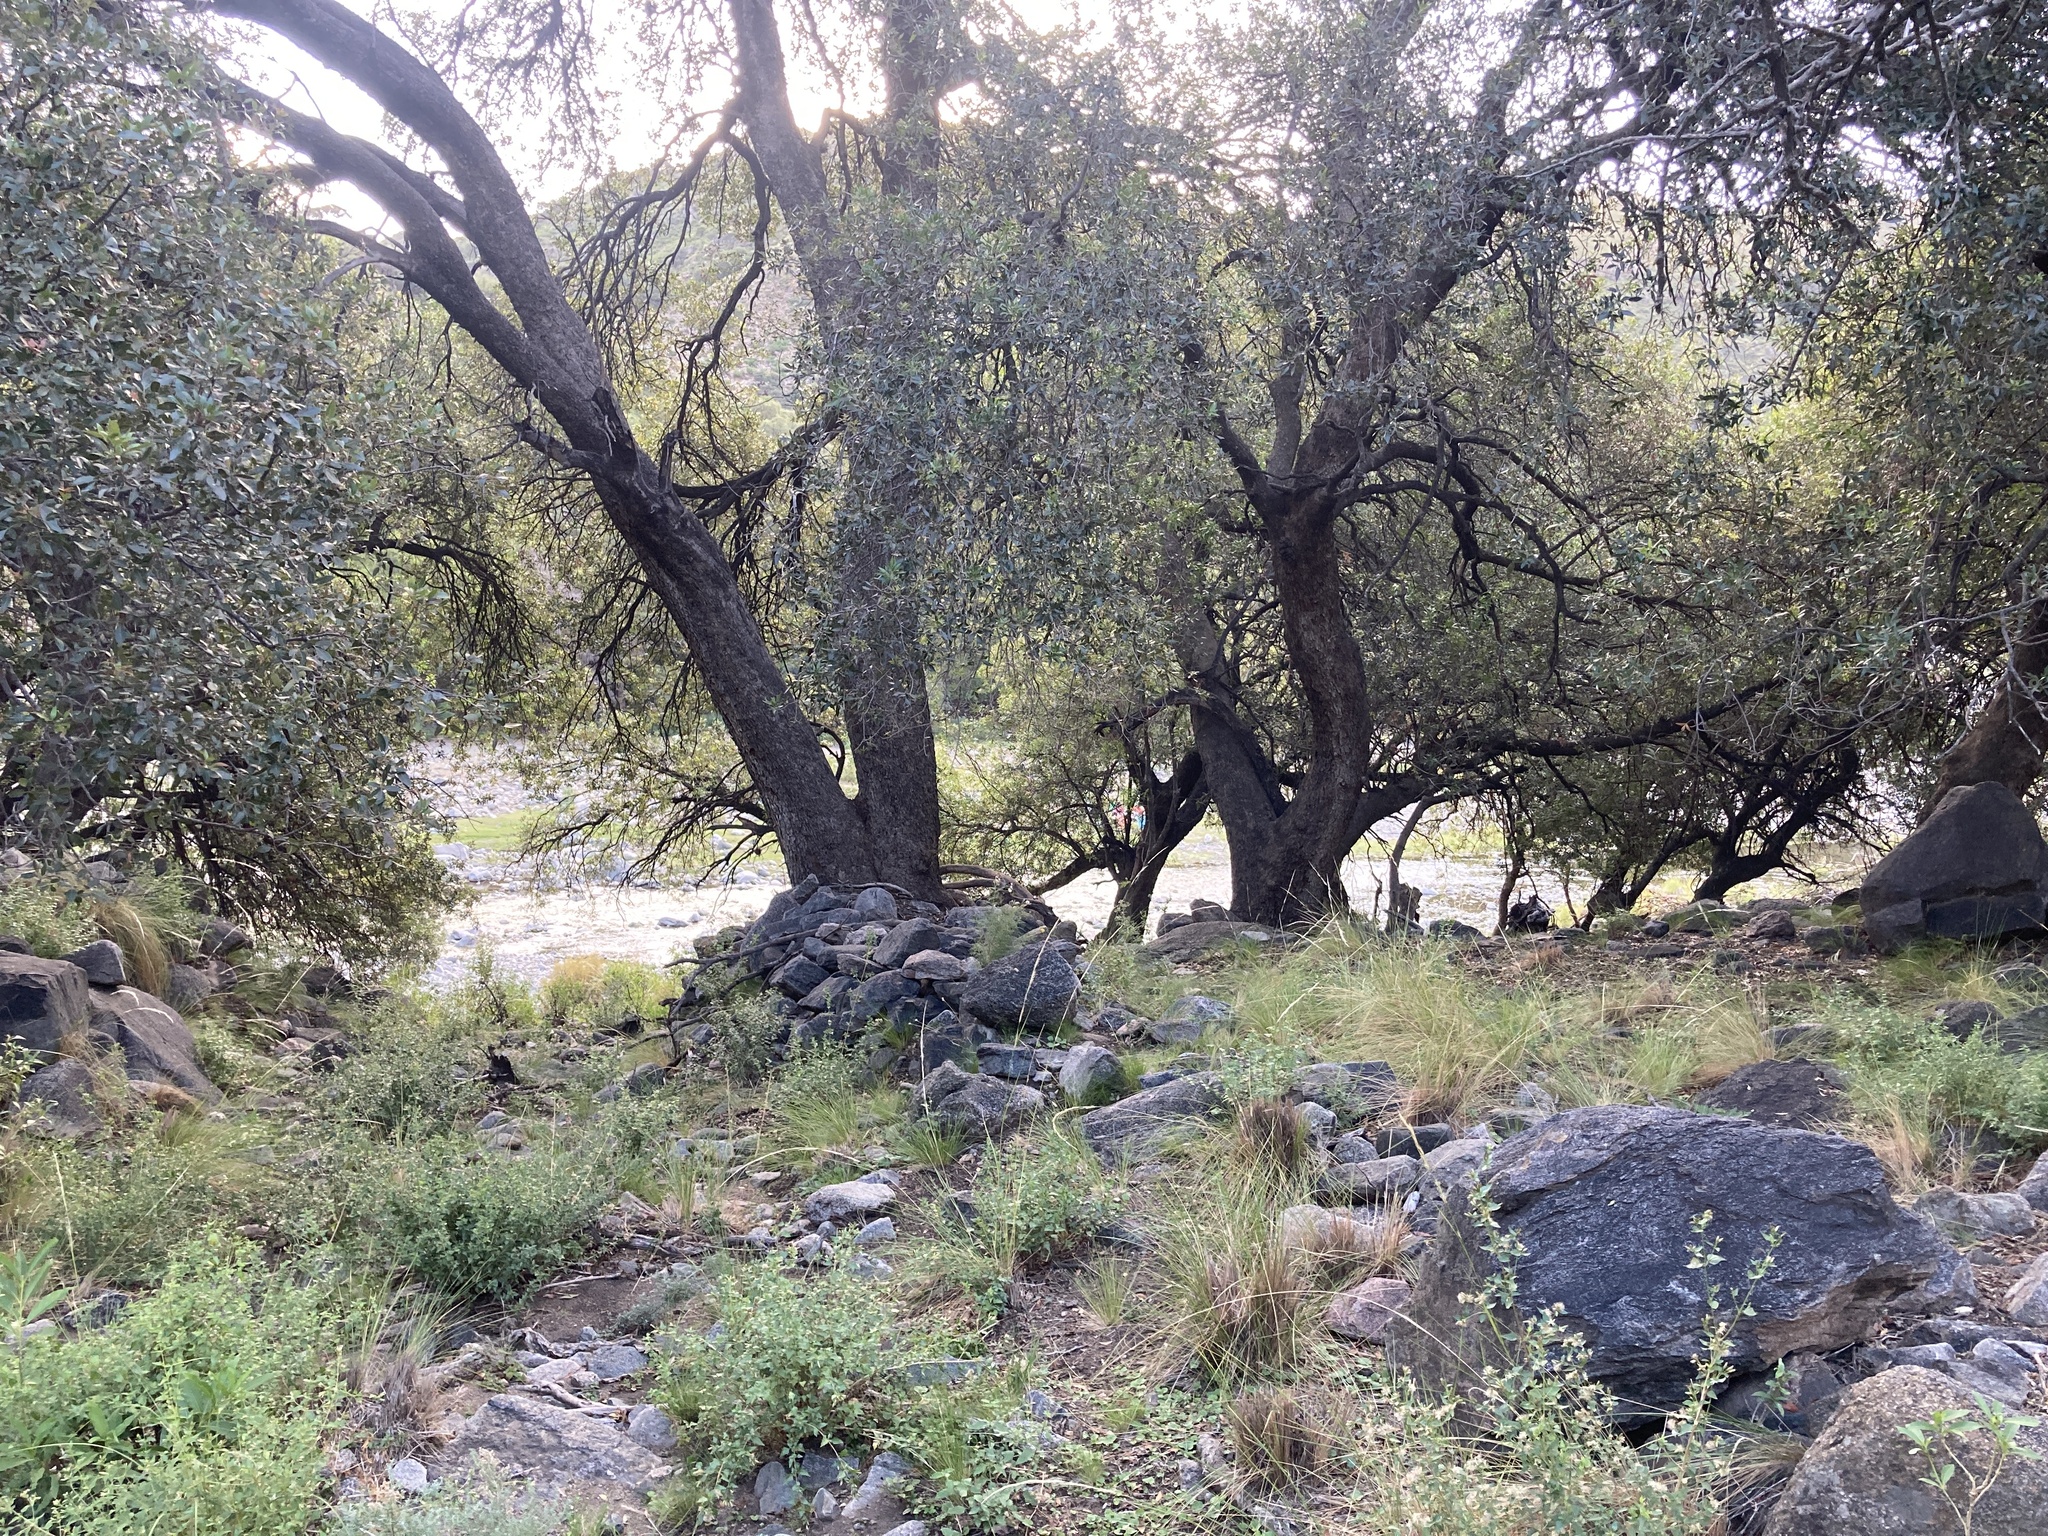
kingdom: Plantae
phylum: Tracheophyta
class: Magnoliopsida
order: Sapindales
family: Anacardiaceae
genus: Lithraea
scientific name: Lithraea molleoides
